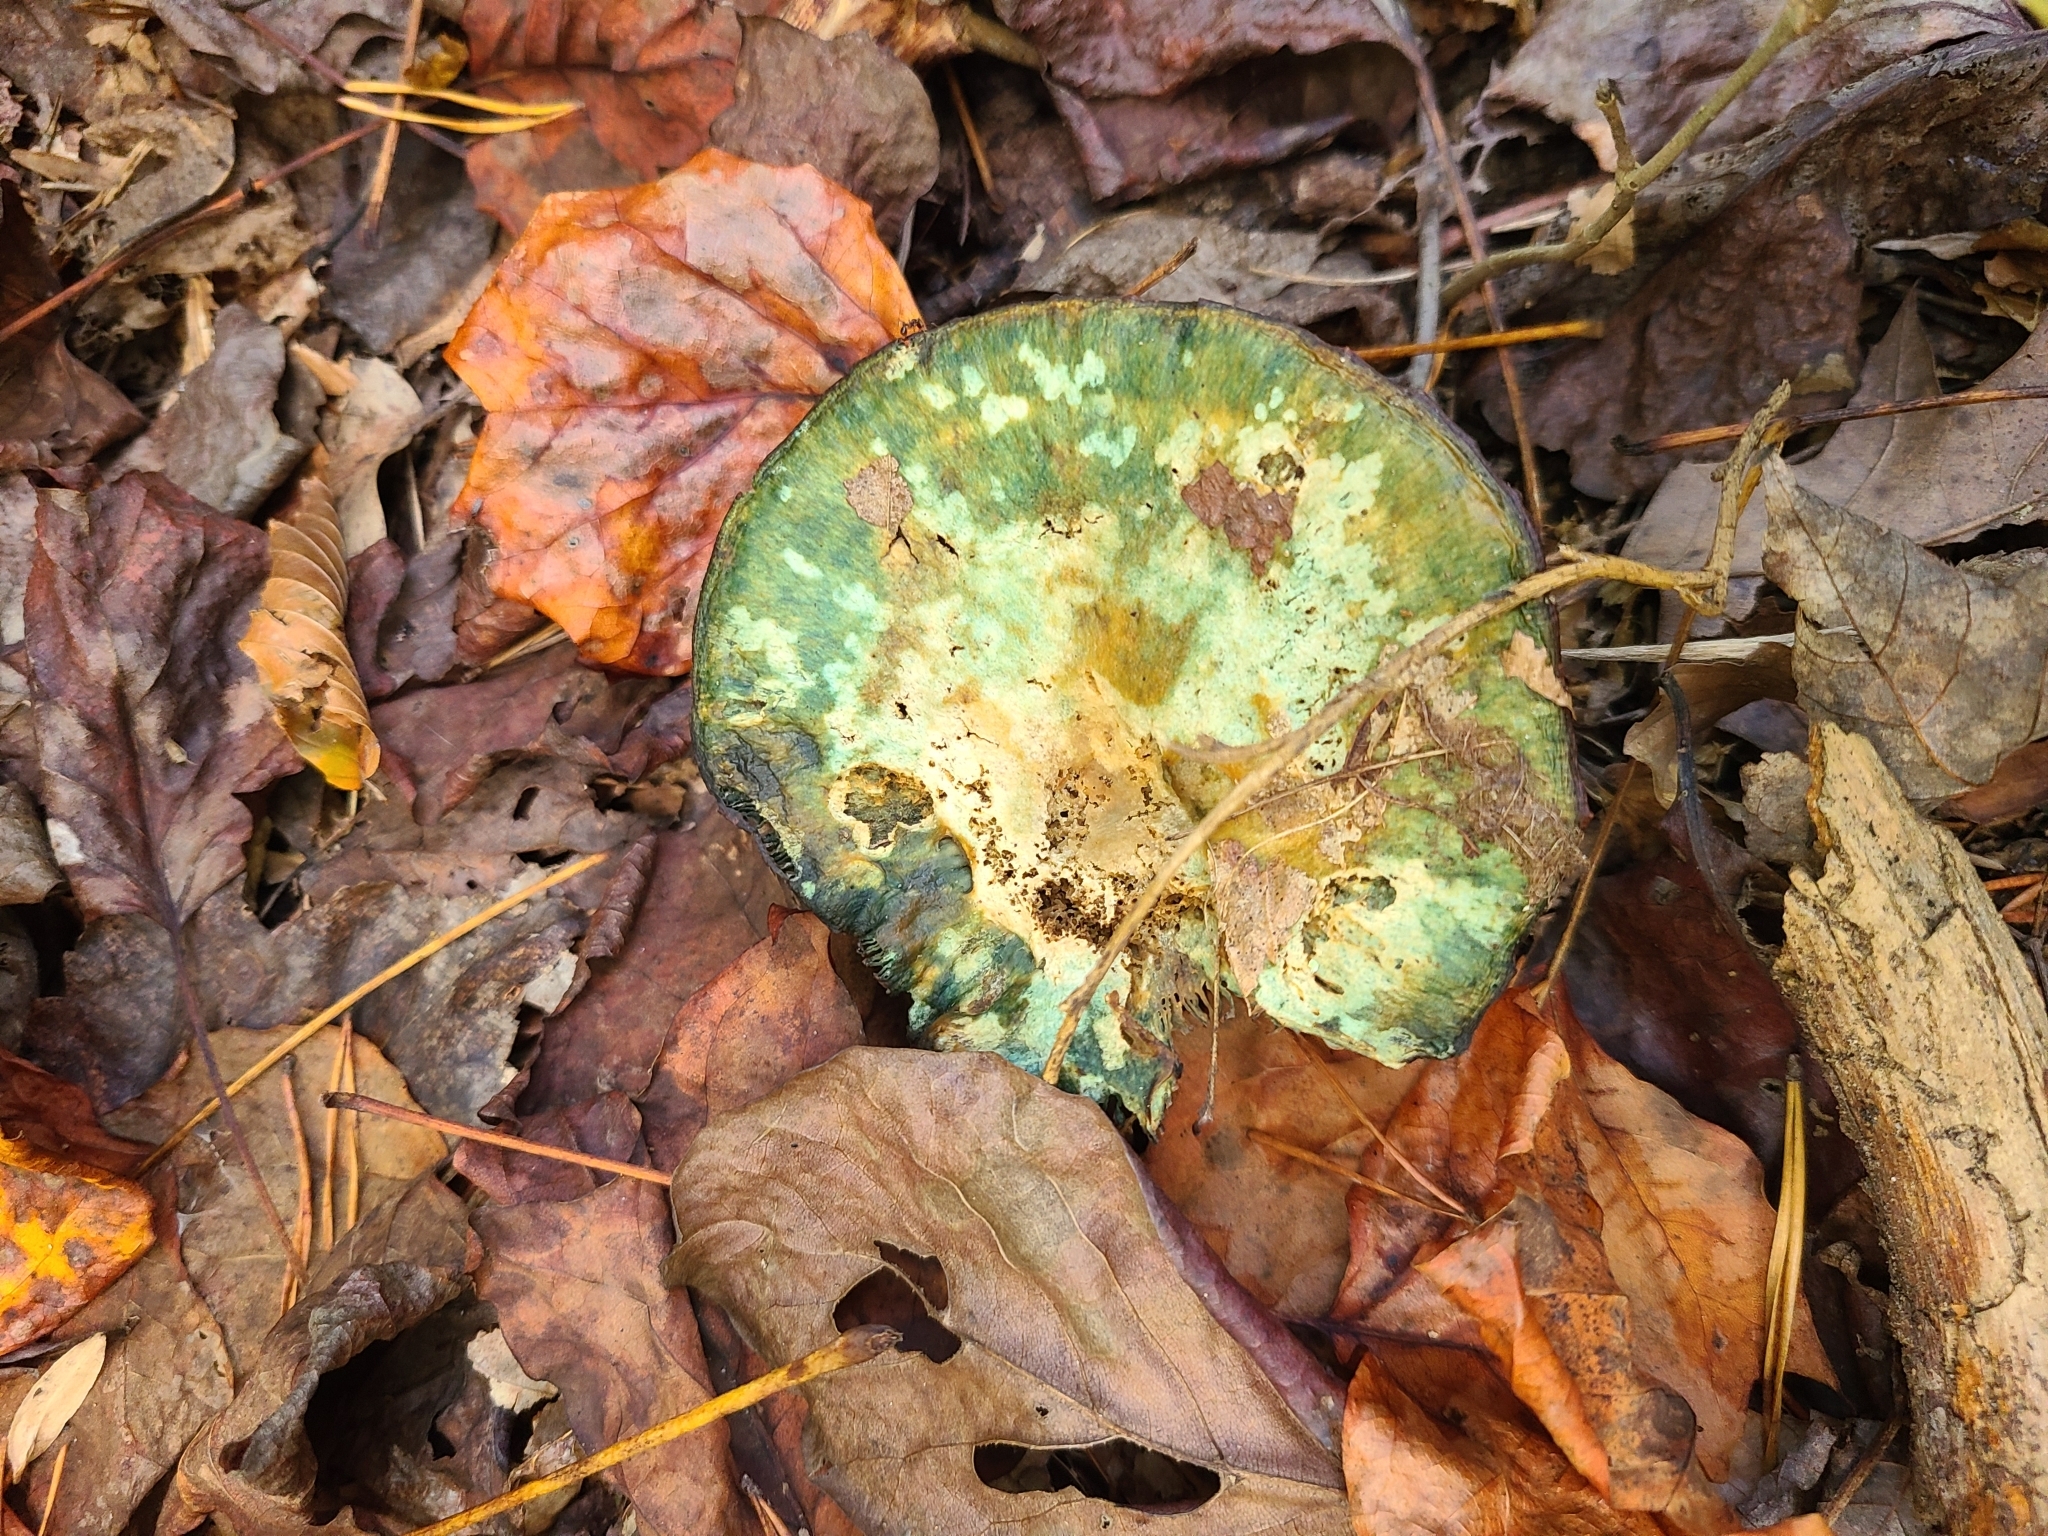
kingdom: Fungi
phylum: Basidiomycota
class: Agaricomycetes
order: Russulales
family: Russulaceae
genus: Lactarius
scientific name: Lactarius indigo
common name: Indigo milk cap
